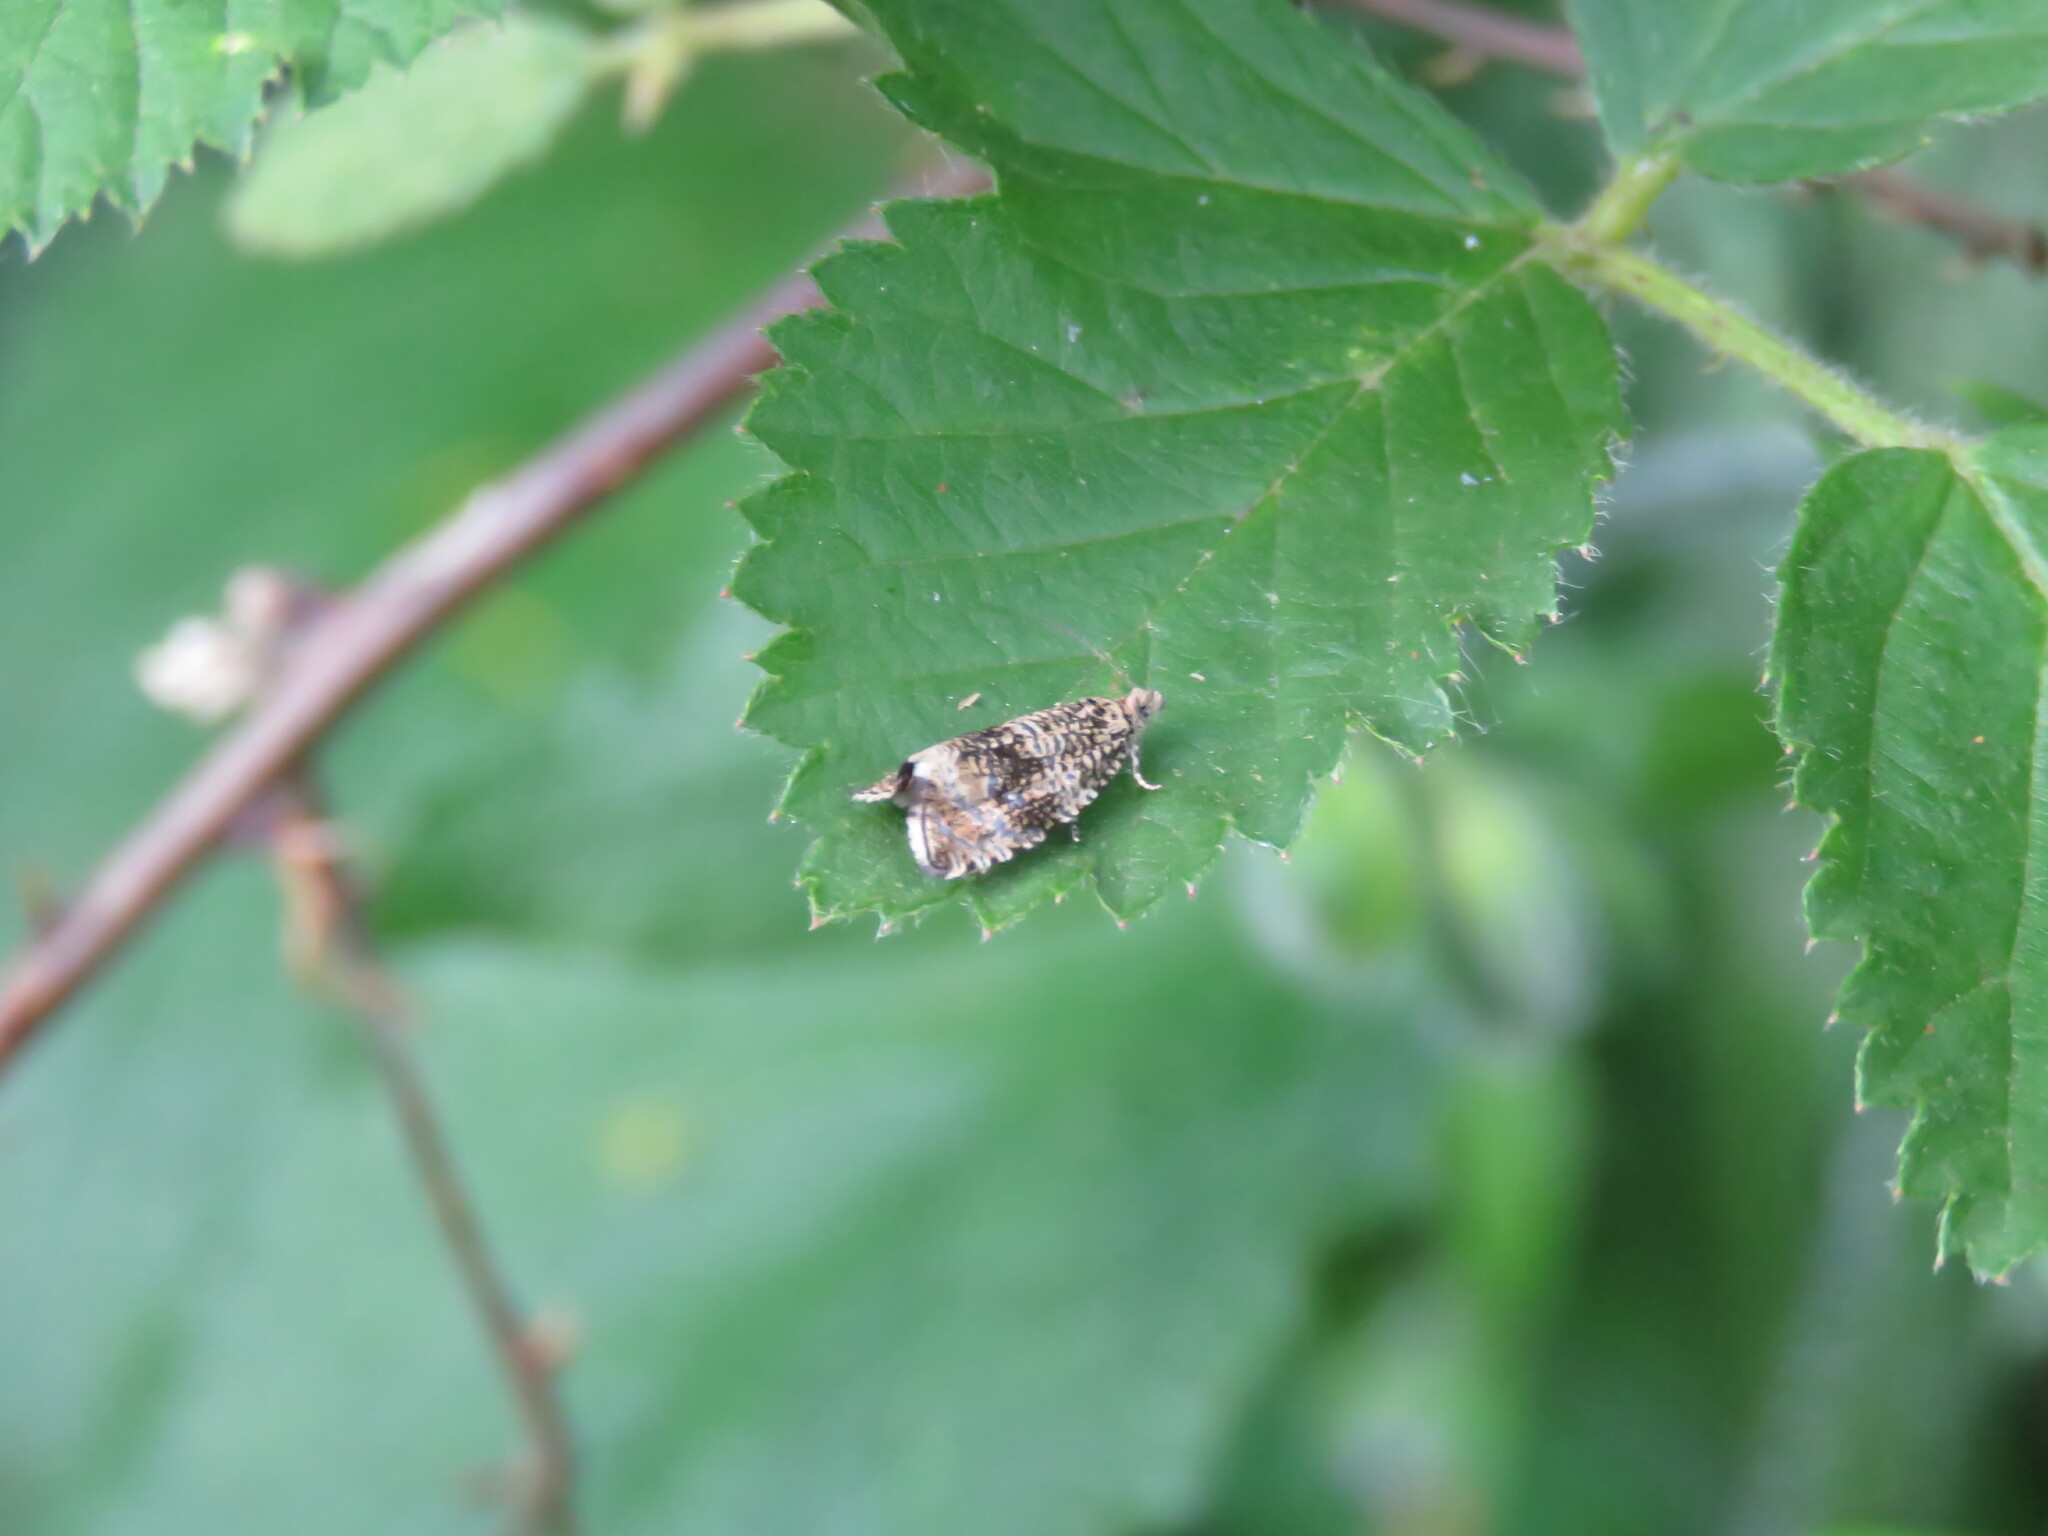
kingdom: Animalia
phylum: Arthropoda
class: Insecta
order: Lepidoptera
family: Tortricidae
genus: Syricoris
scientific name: Syricoris lacunana
